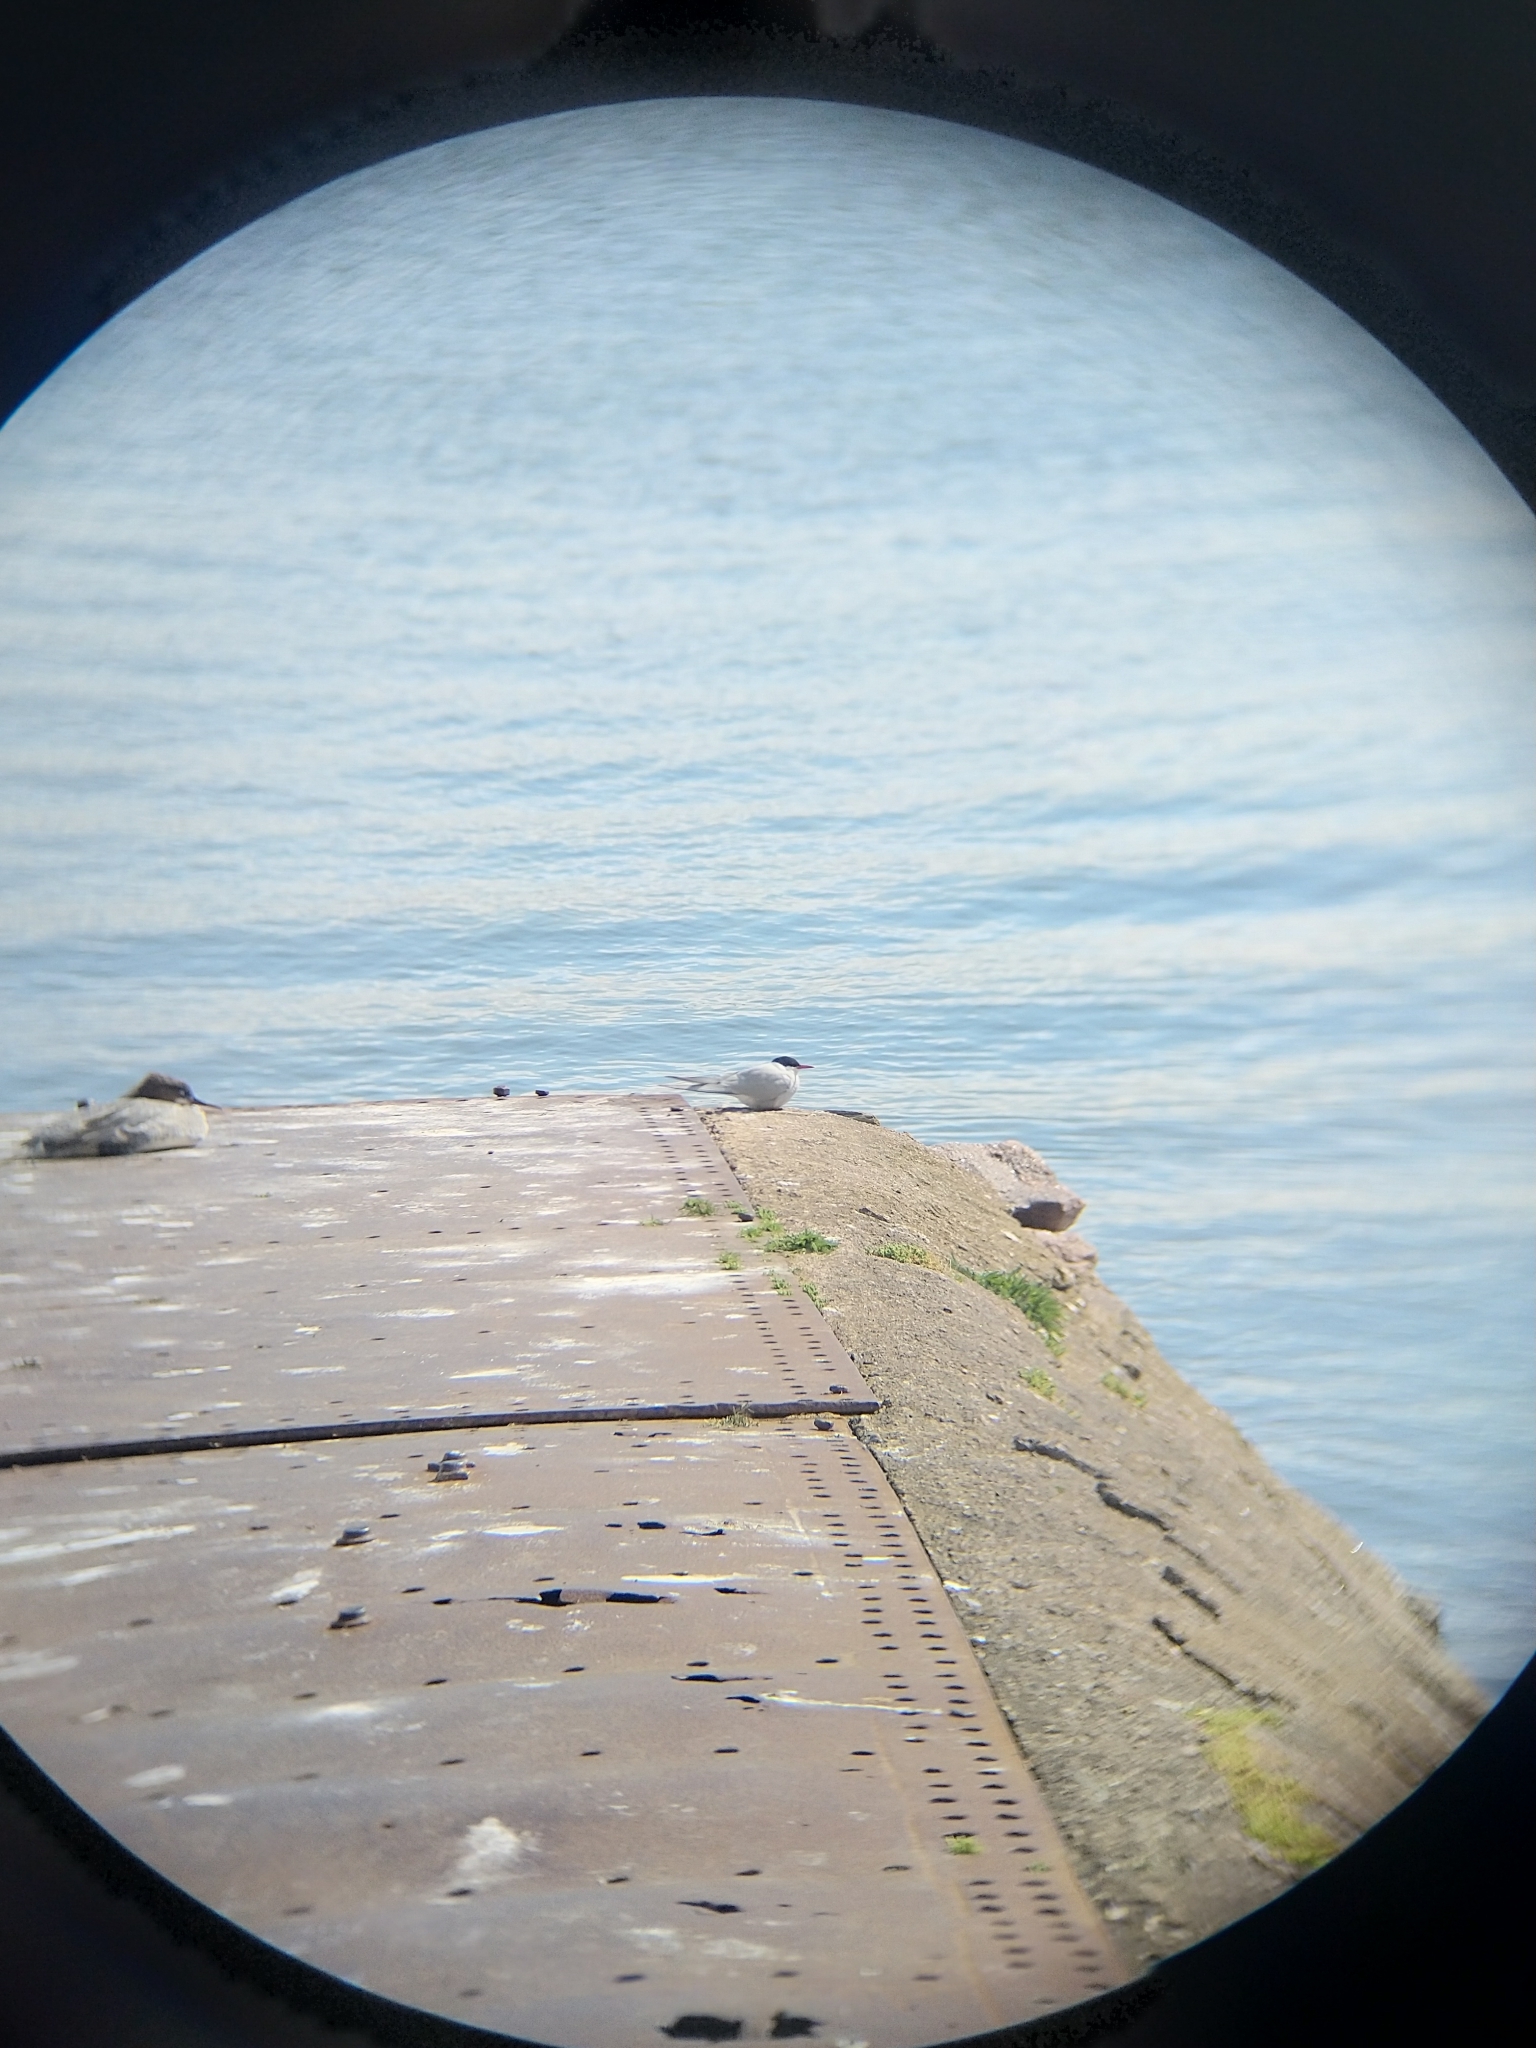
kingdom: Animalia
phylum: Chordata
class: Aves
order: Charadriiformes
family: Laridae
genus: Sterna
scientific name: Sterna paradisaea
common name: Arctic tern
